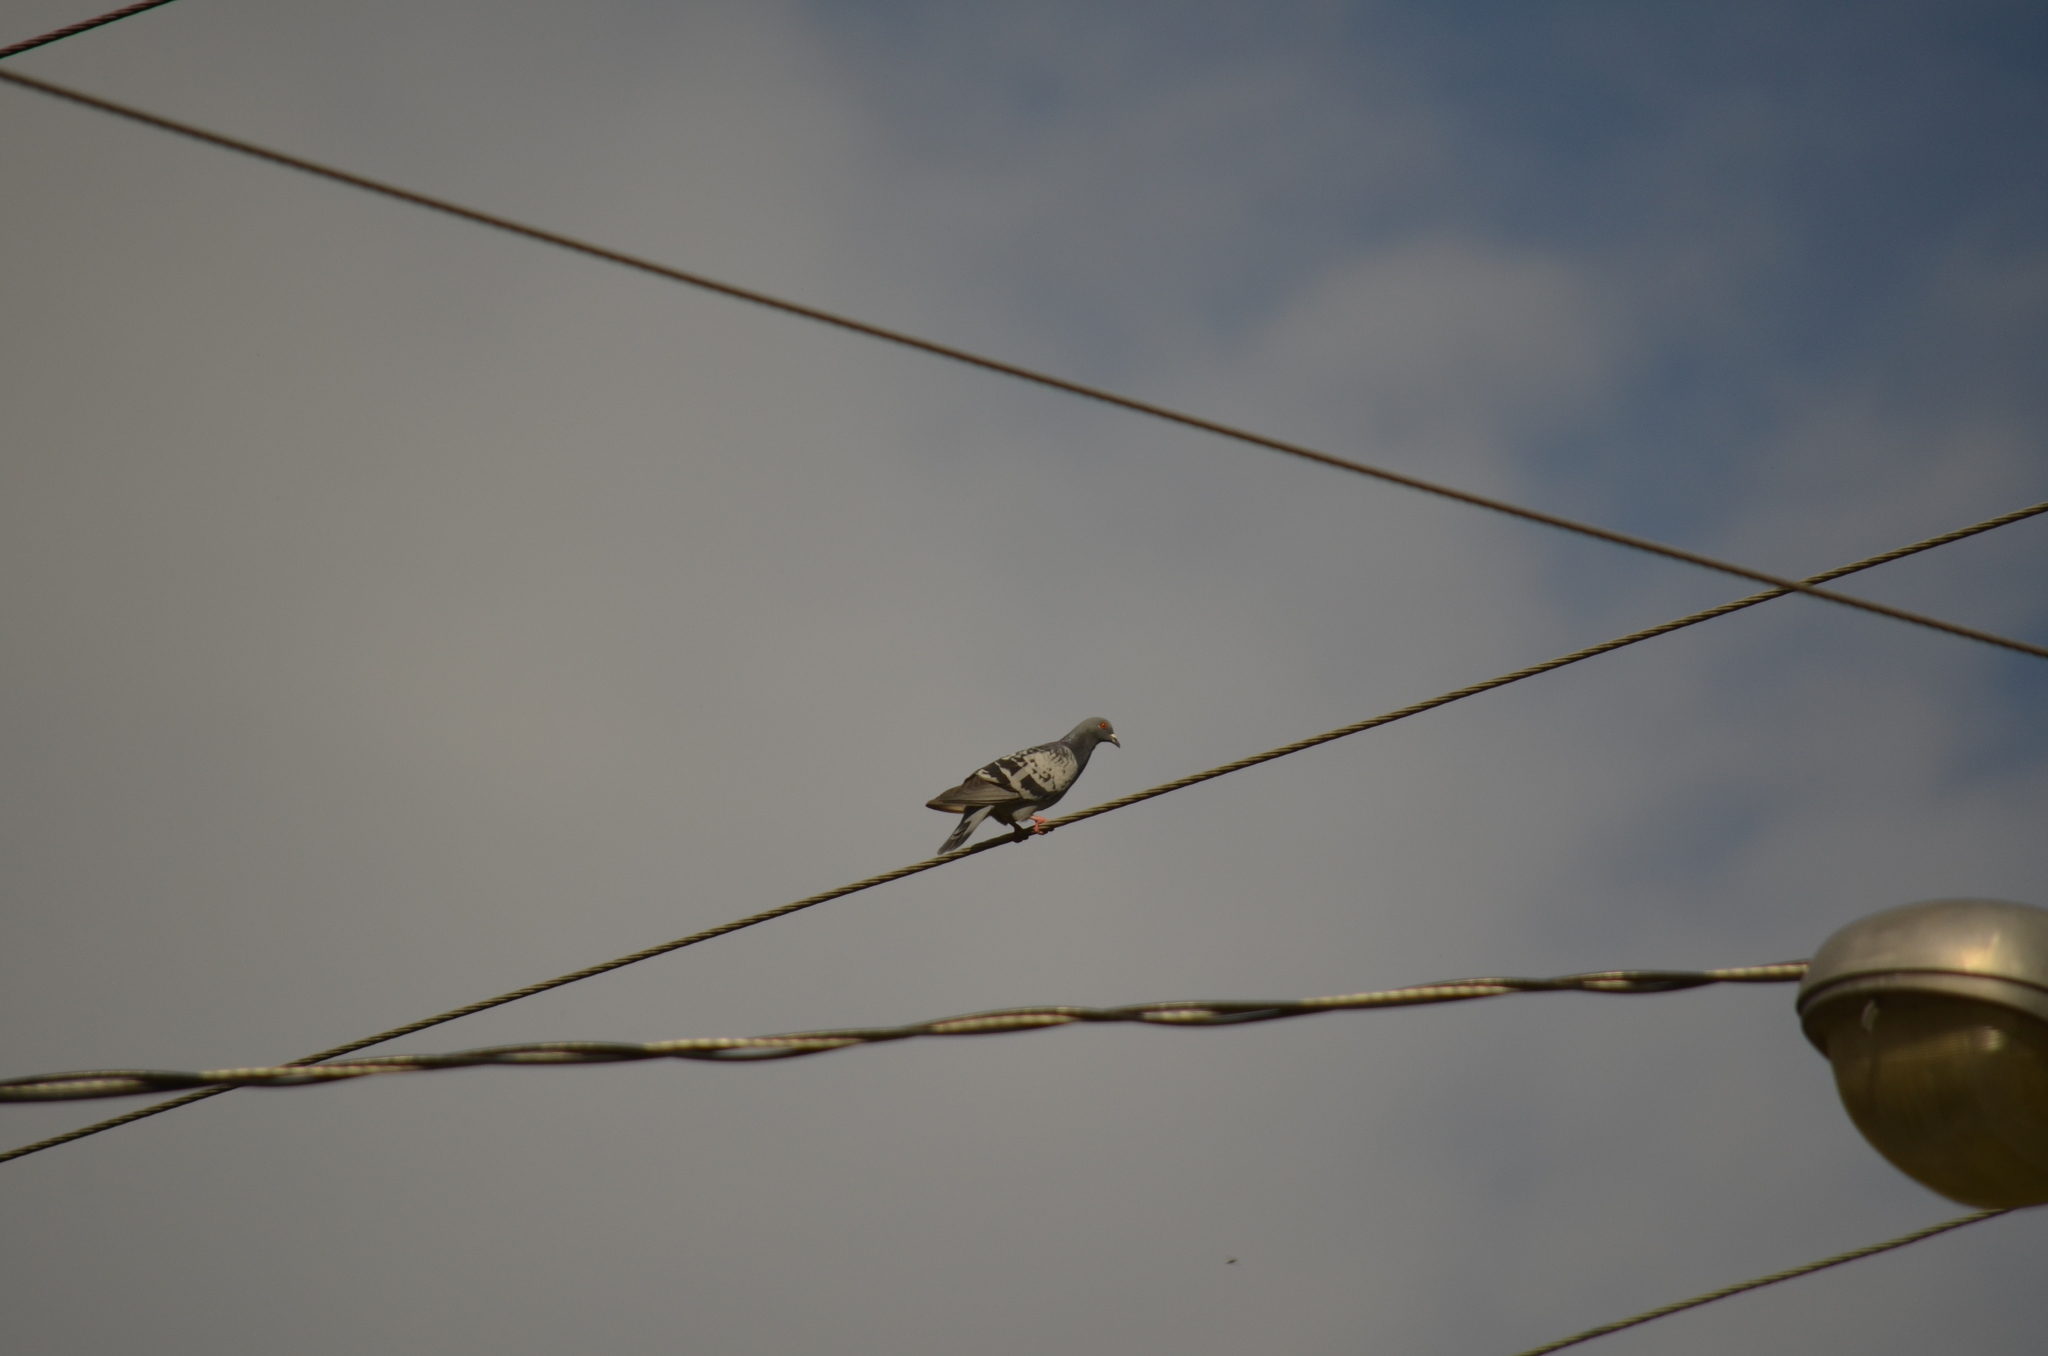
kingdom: Animalia
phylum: Chordata
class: Aves
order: Columbiformes
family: Columbidae
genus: Columba
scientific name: Columba livia
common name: Rock pigeon
